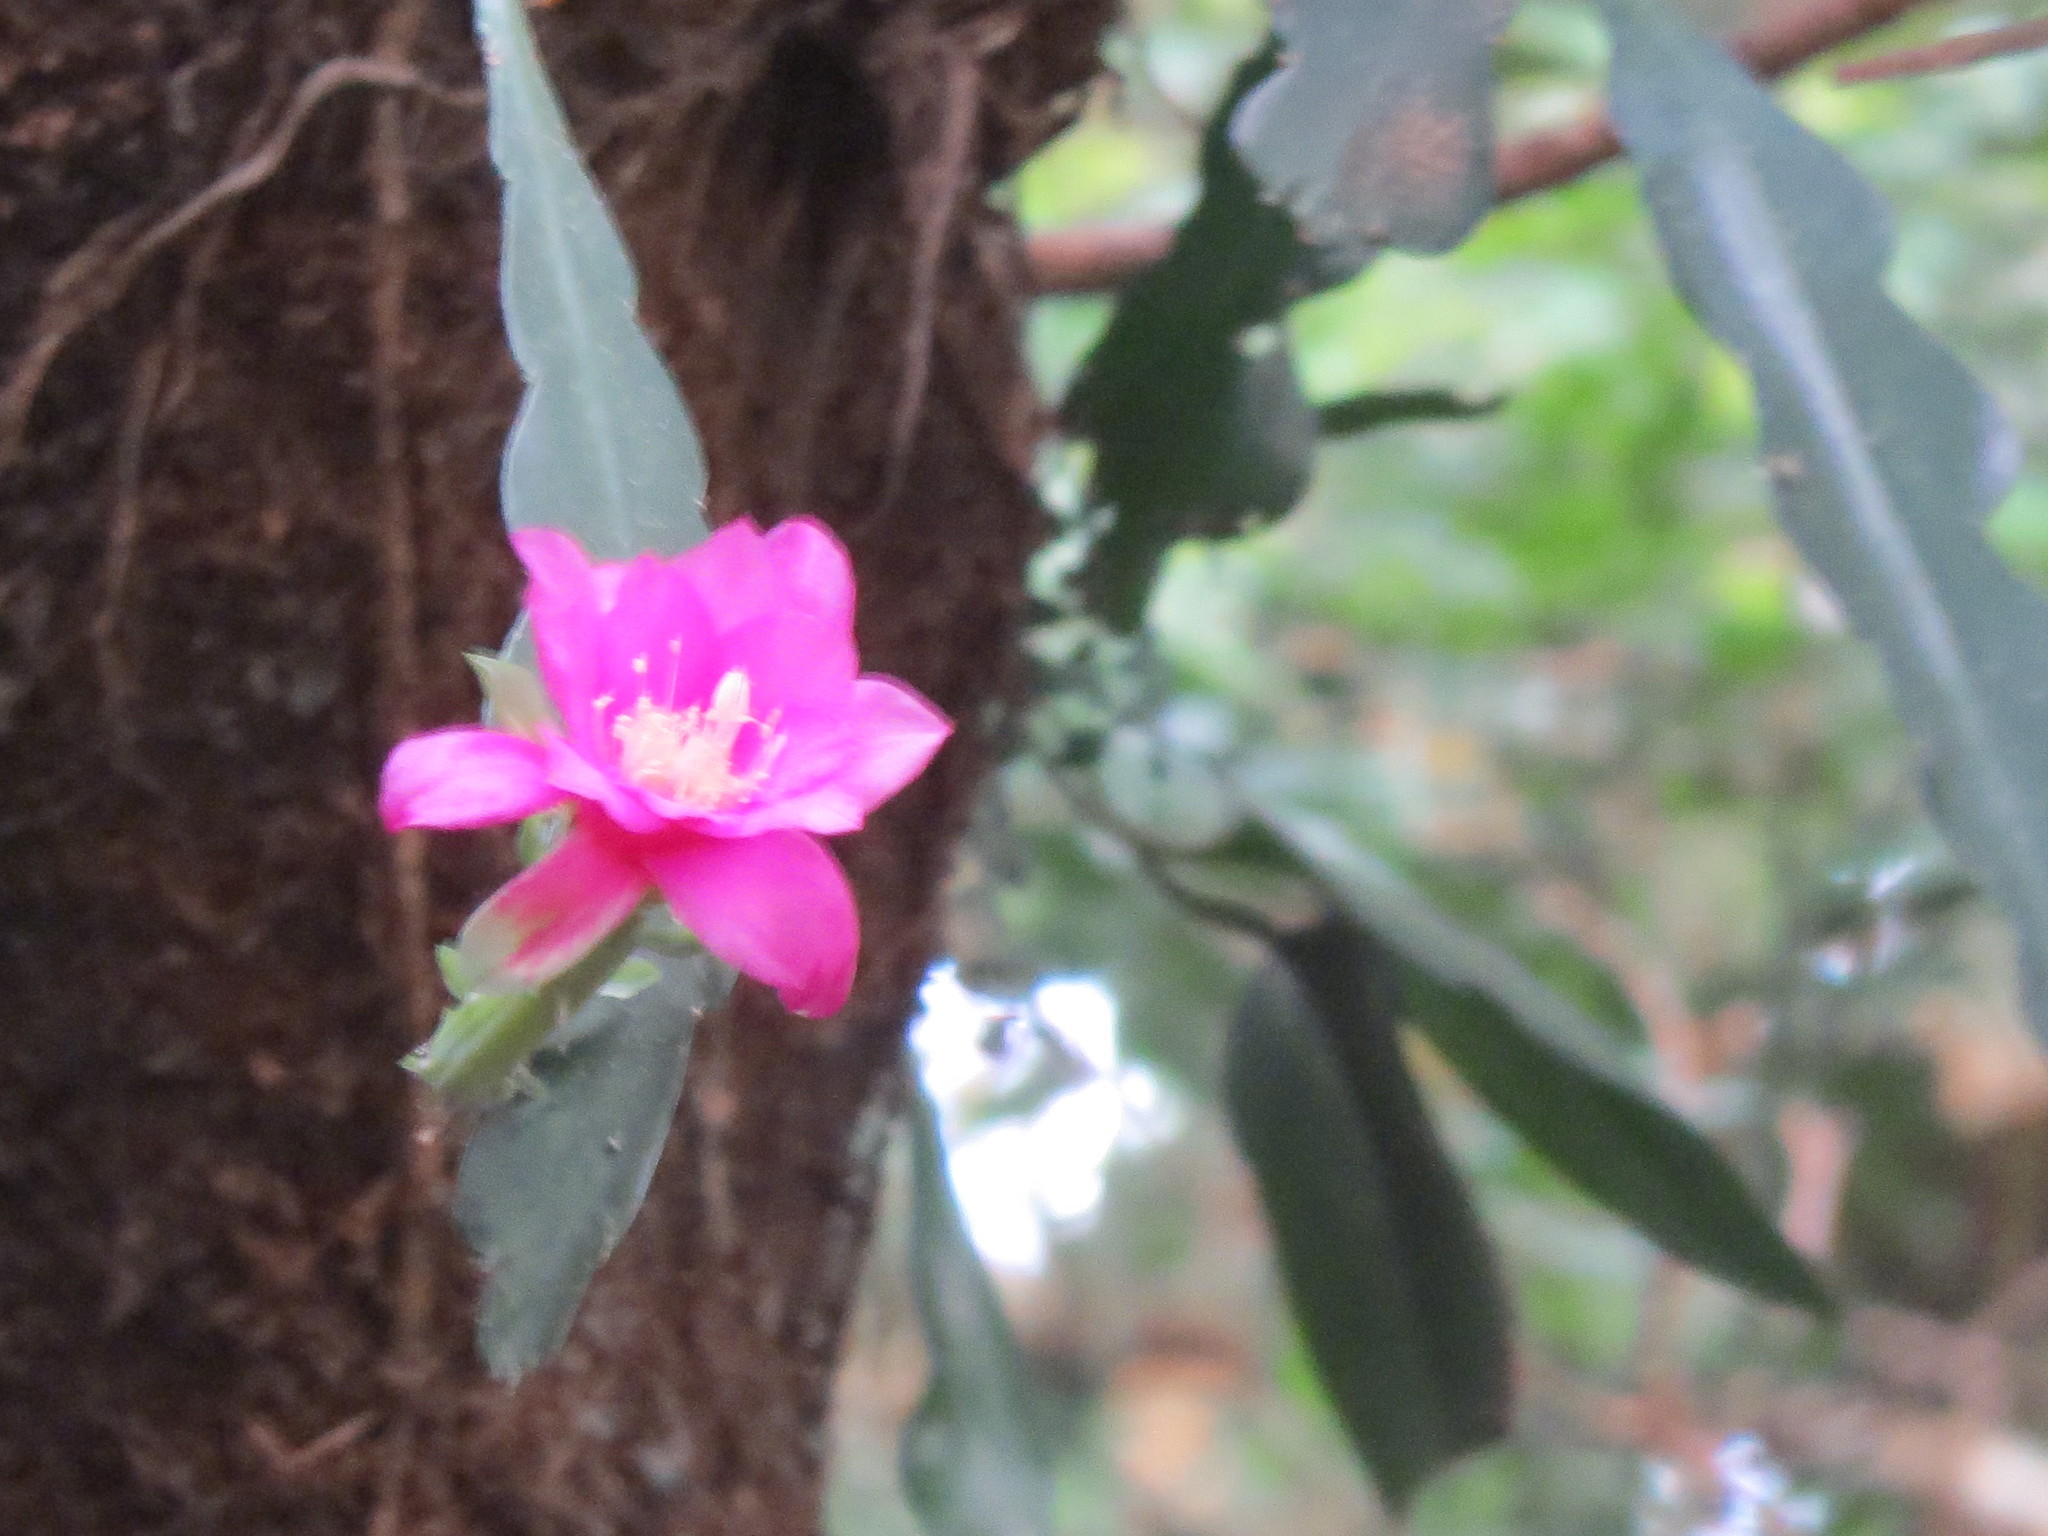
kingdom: Plantae
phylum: Tracheophyta
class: Magnoliopsida
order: Caryophyllales
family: Cactaceae
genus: Disocactus
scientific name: Disocactus macdougallii
